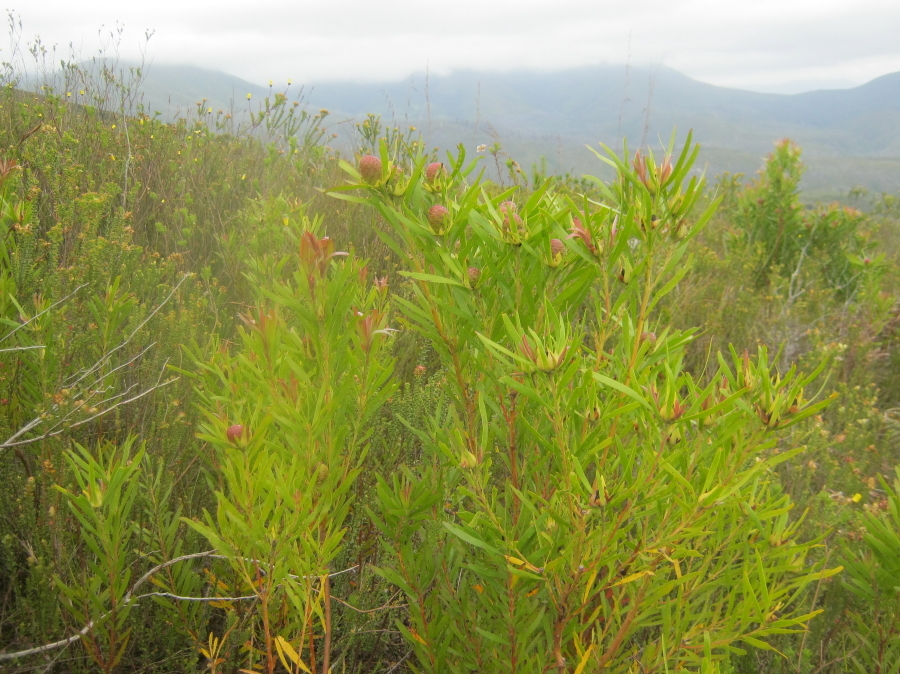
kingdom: Plantae
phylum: Tracheophyta
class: Magnoliopsida
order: Proteales
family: Proteaceae
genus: Leucadendron
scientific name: Leucadendron eucalyptifolium
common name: Gum-leaved conebush
